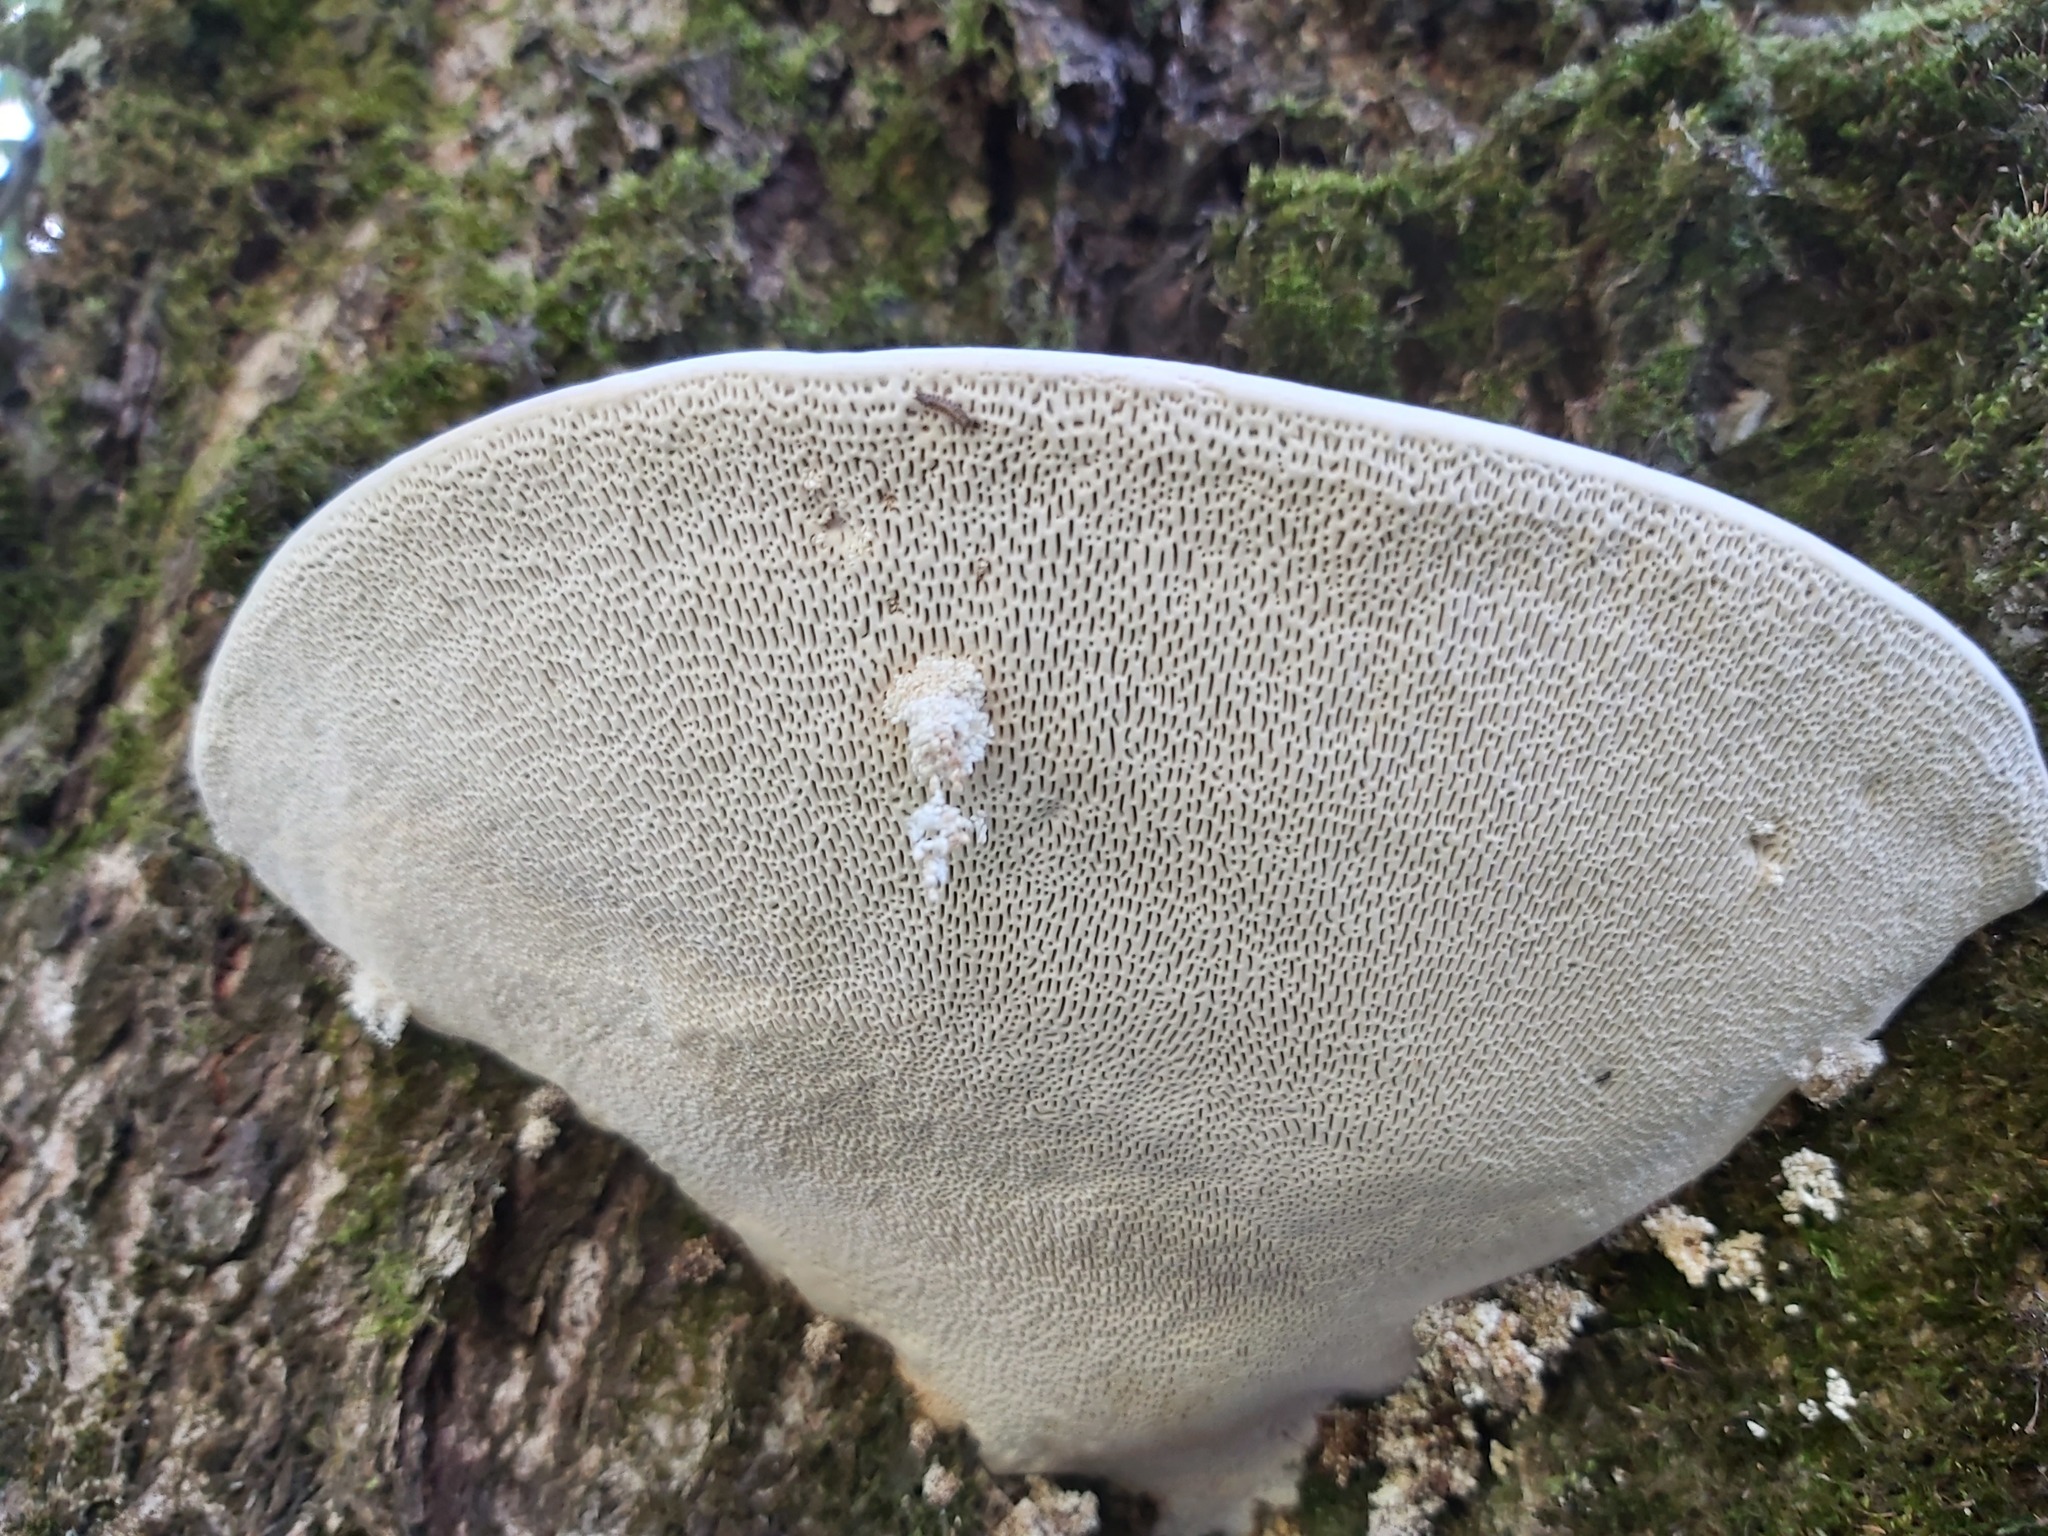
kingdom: Fungi
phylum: Basidiomycota
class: Agaricomycetes
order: Polyporales
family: Polyporaceae
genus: Trametes
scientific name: Trametes gibbosa
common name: Lumpy bracket
